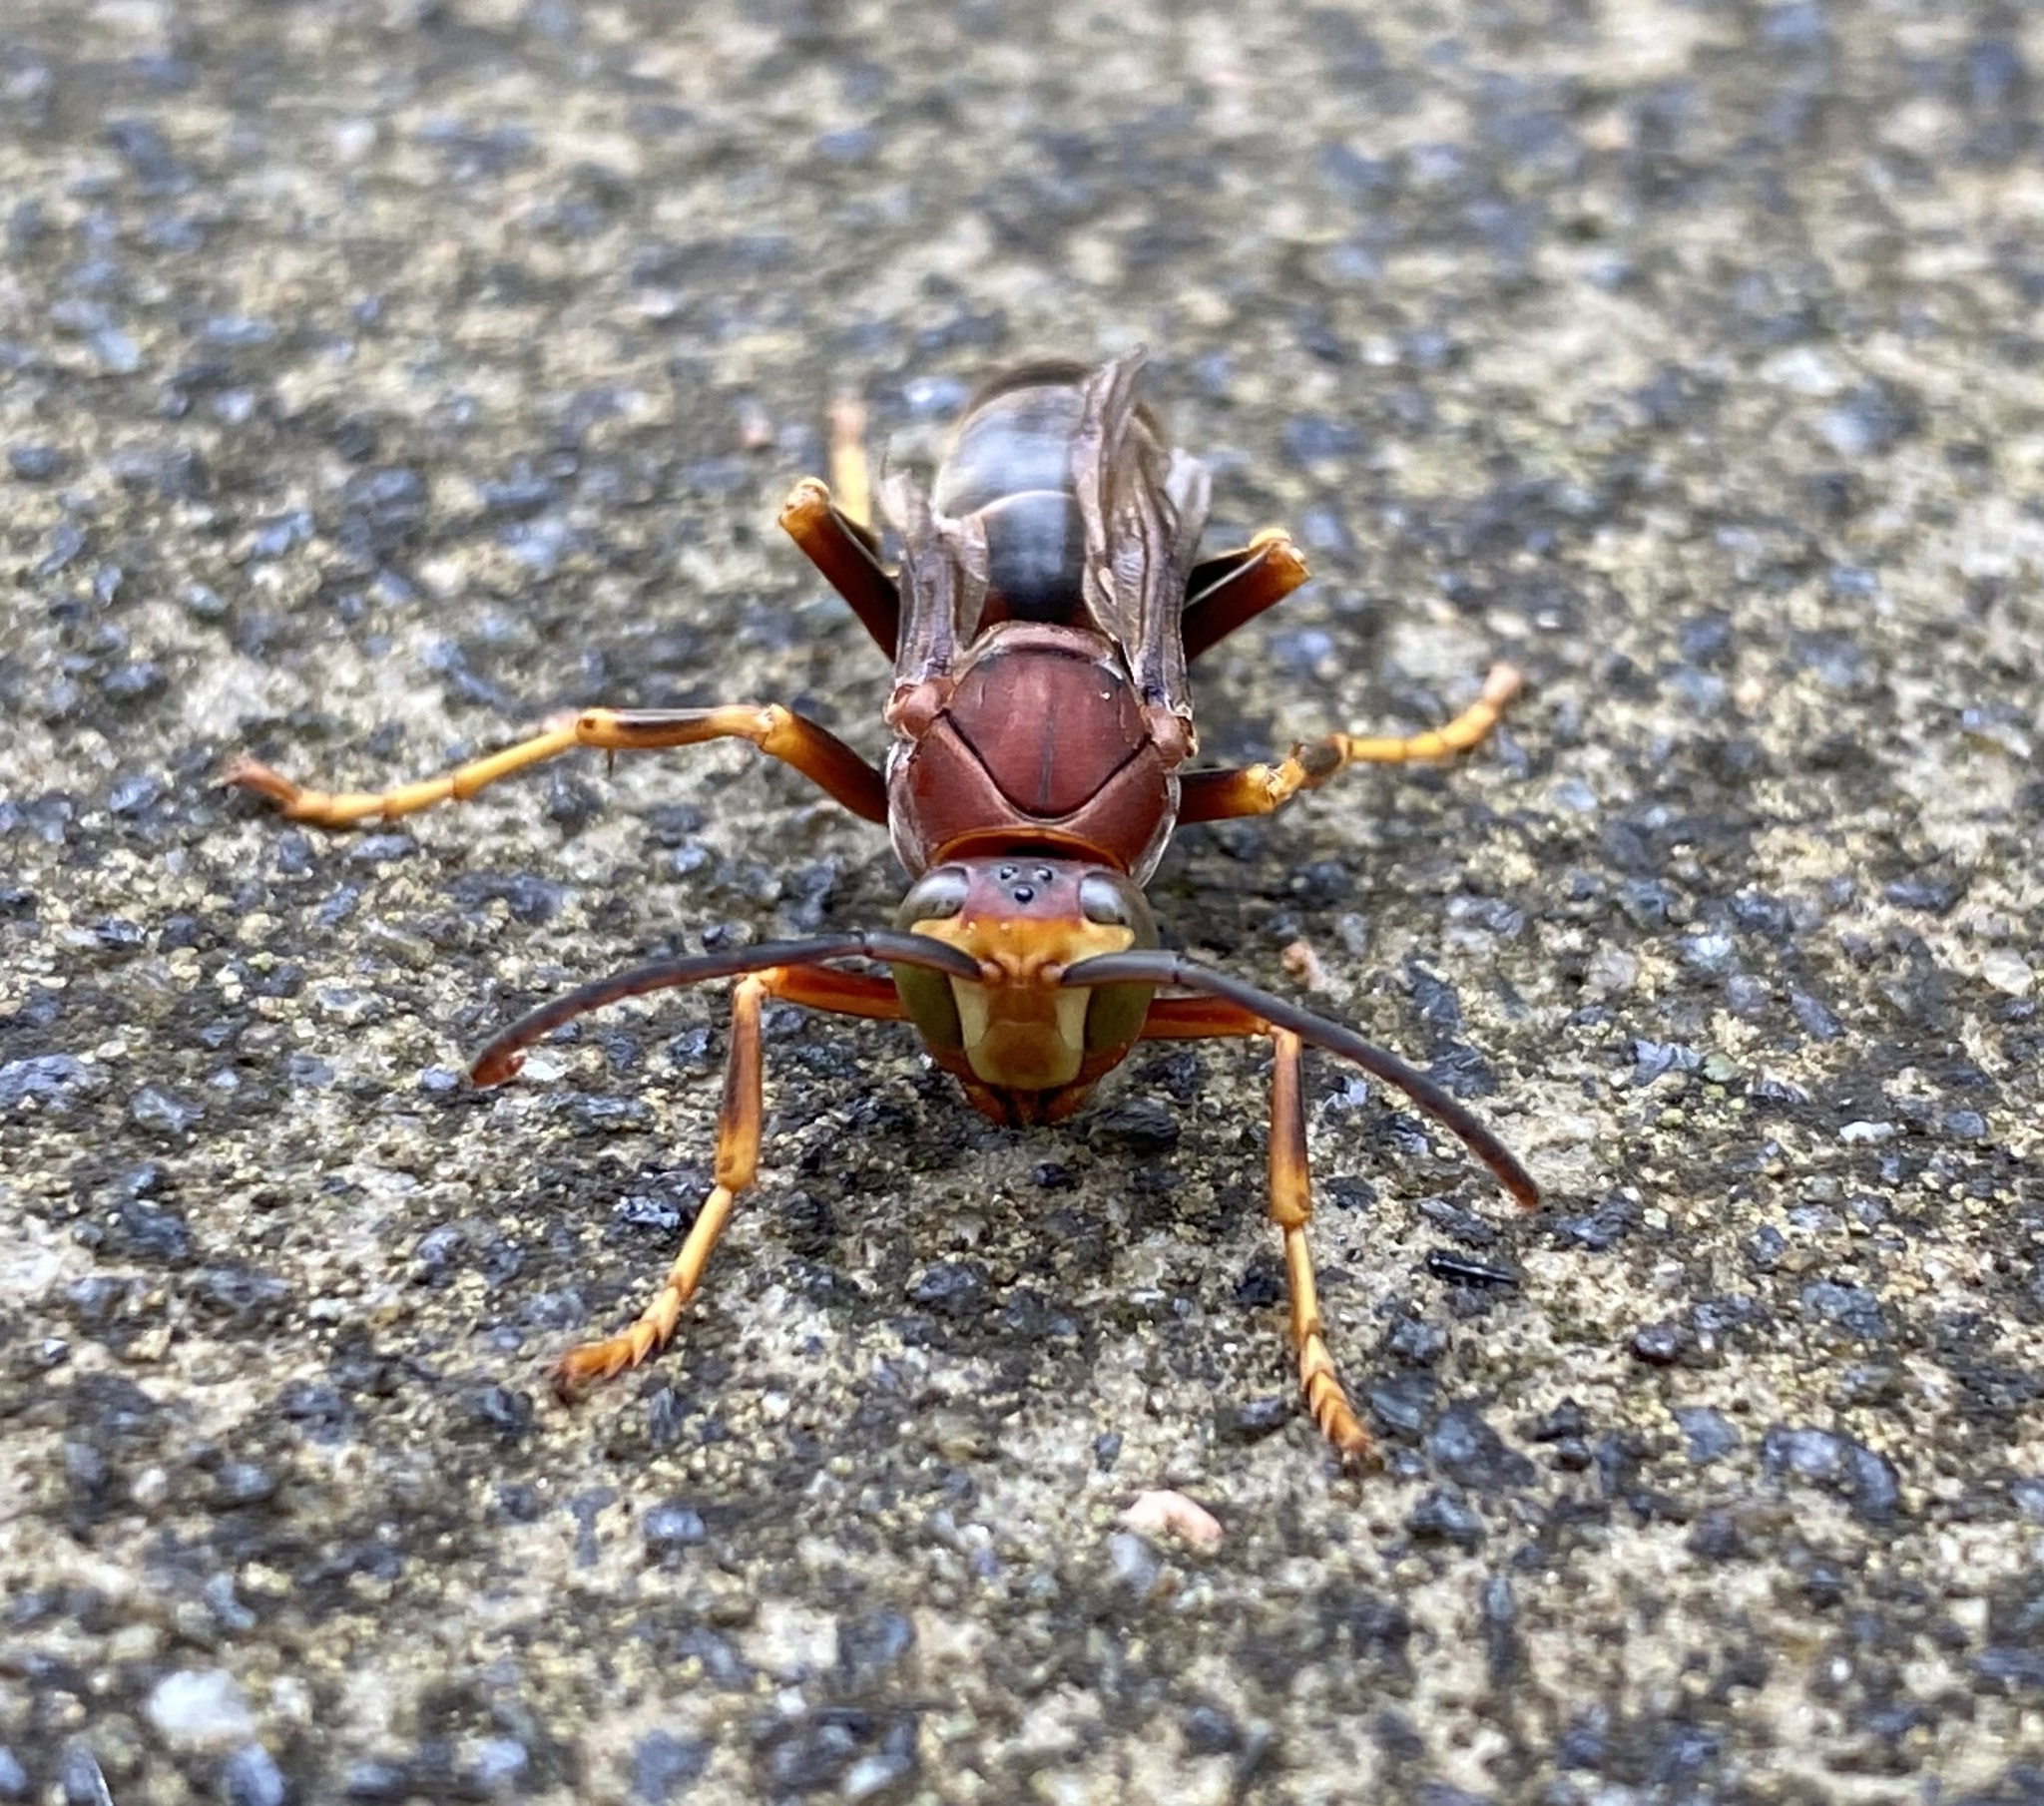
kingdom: Animalia
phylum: Arthropoda
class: Insecta
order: Hymenoptera
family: Eumenidae
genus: Polistes
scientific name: Polistes metricus
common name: Metric paper wasp
